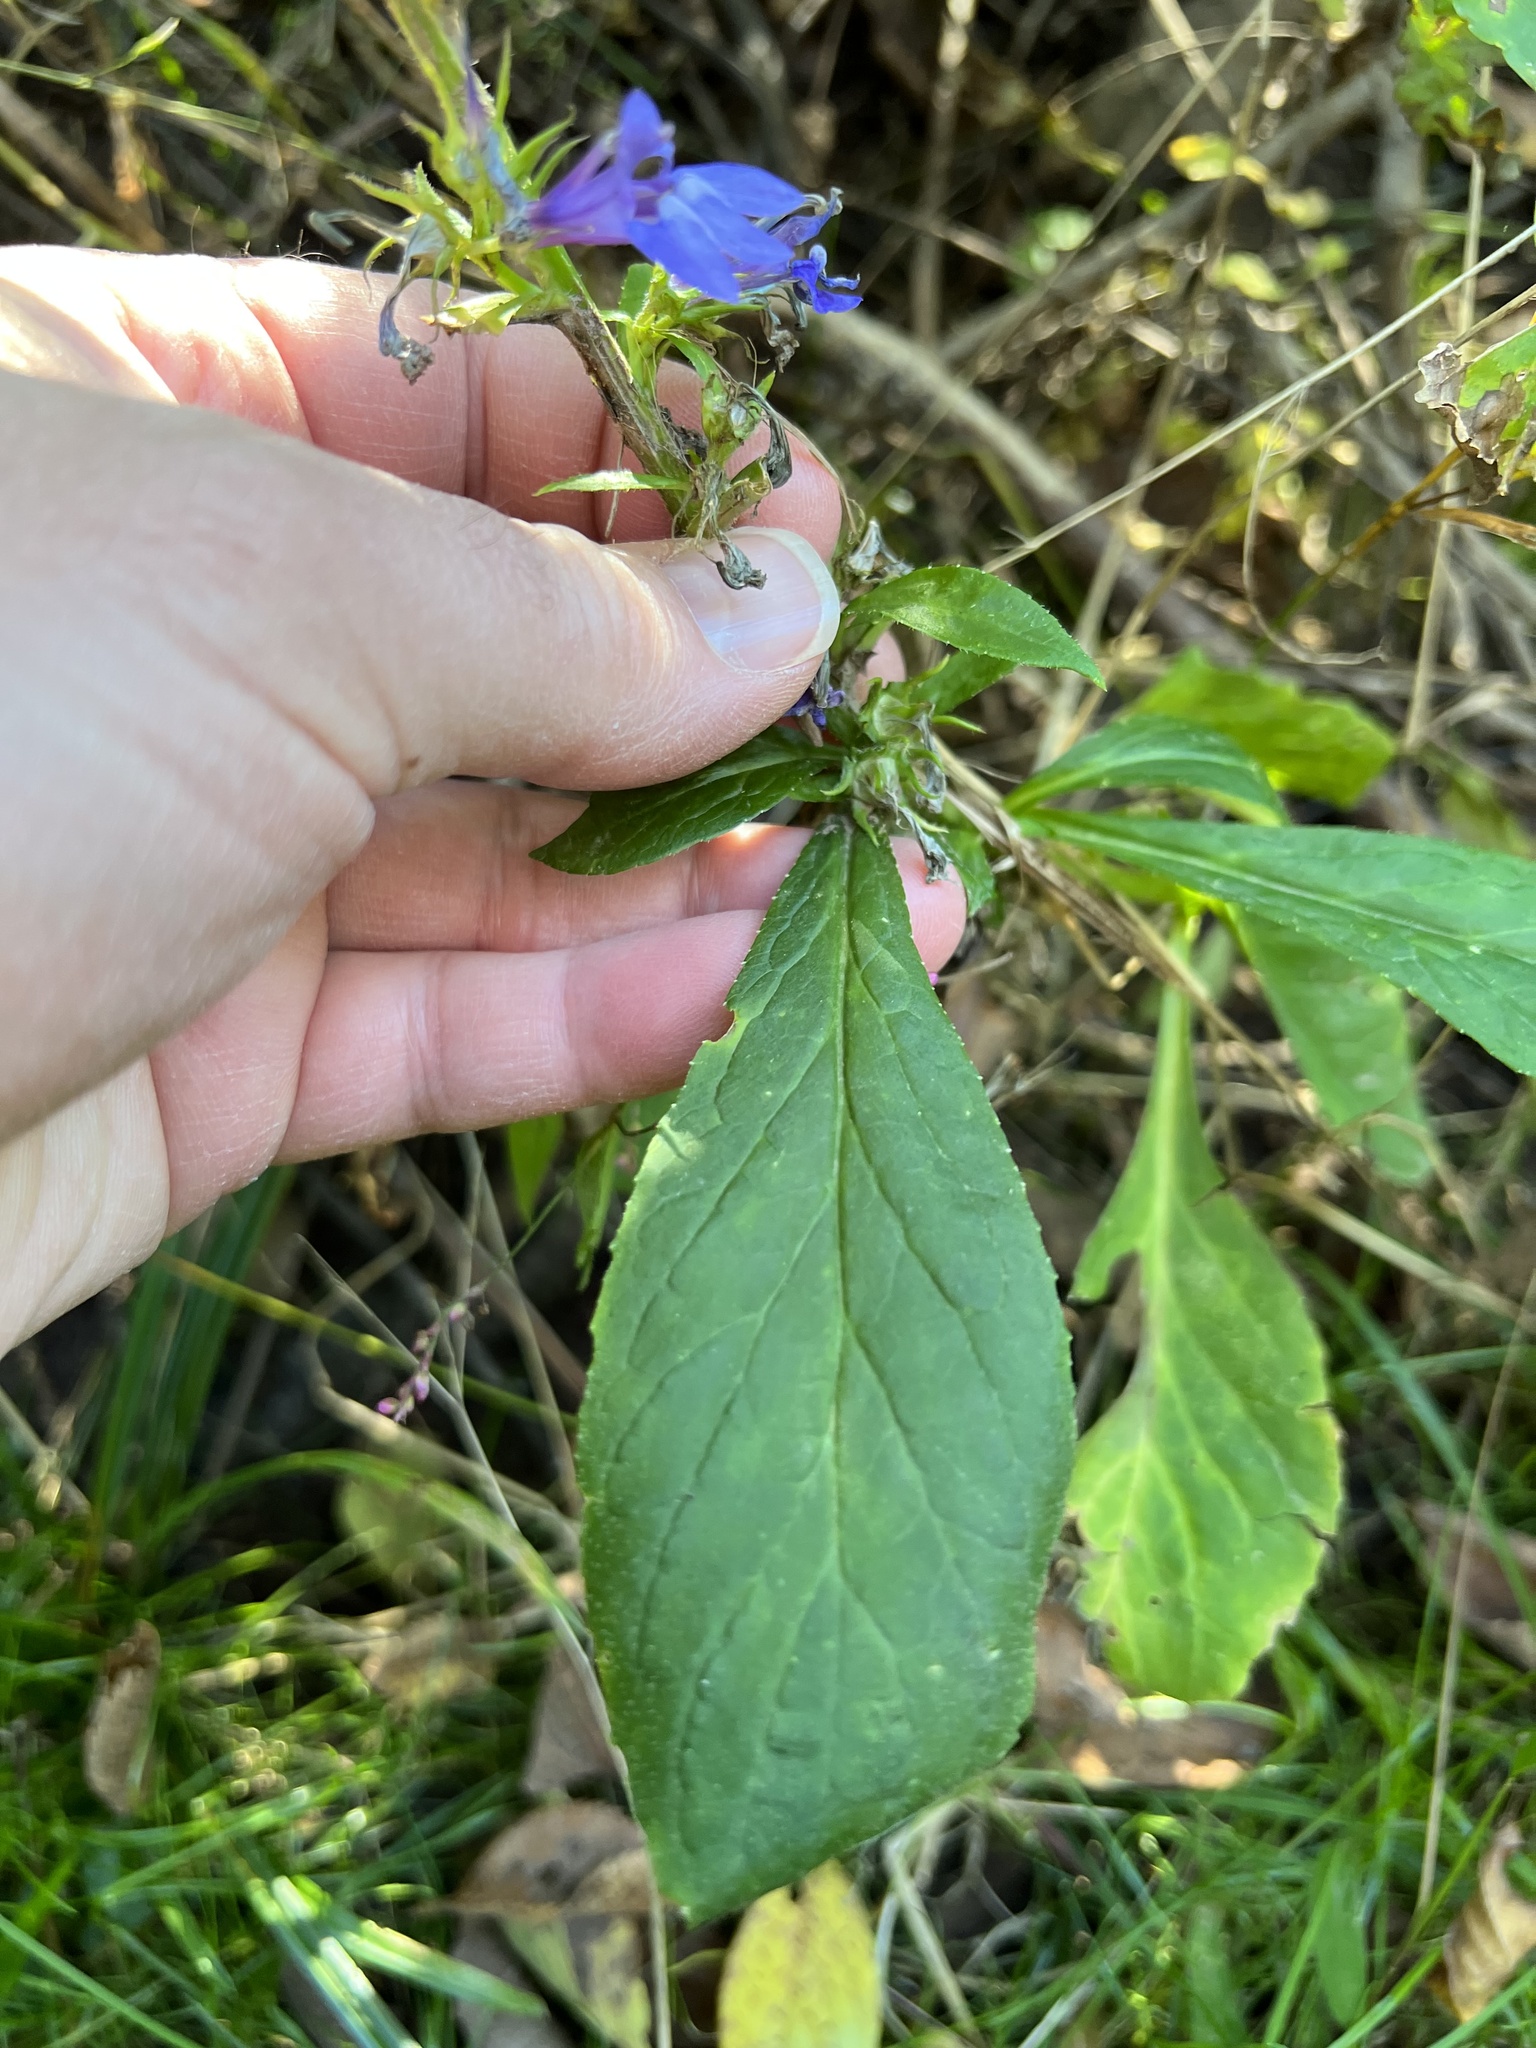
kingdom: Plantae
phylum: Tracheophyta
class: Magnoliopsida
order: Asterales
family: Campanulaceae
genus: Lobelia
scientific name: Lobelia siphilitica
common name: Great lobelia
